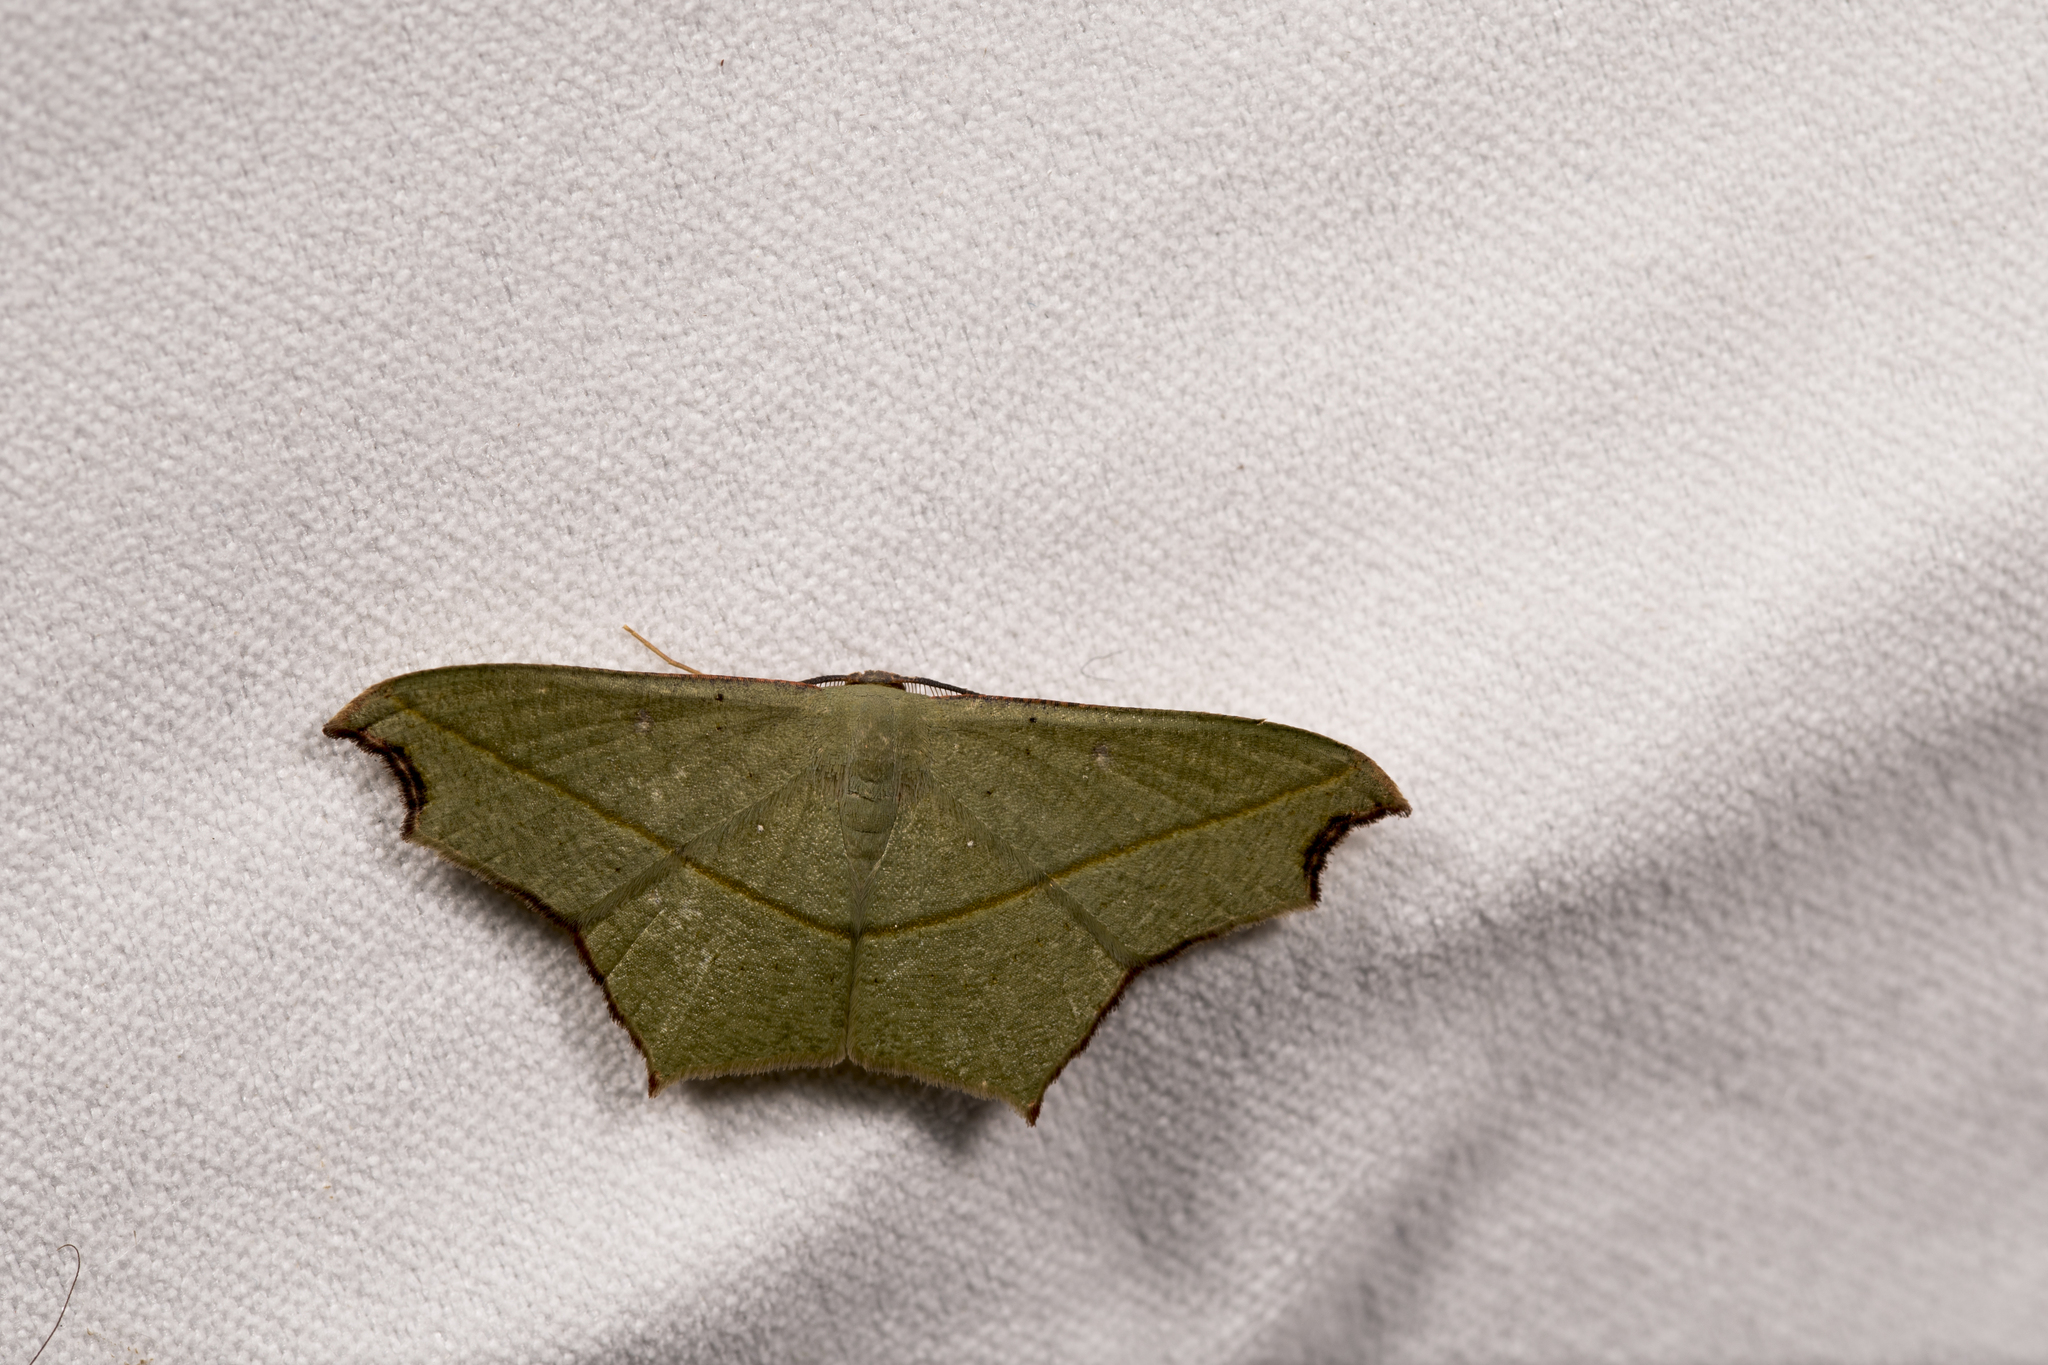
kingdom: Animalia
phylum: Arthropoda
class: Insecta
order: Lepidoptera
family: Geometridae
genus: Traminda
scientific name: Traminda aventiaria
